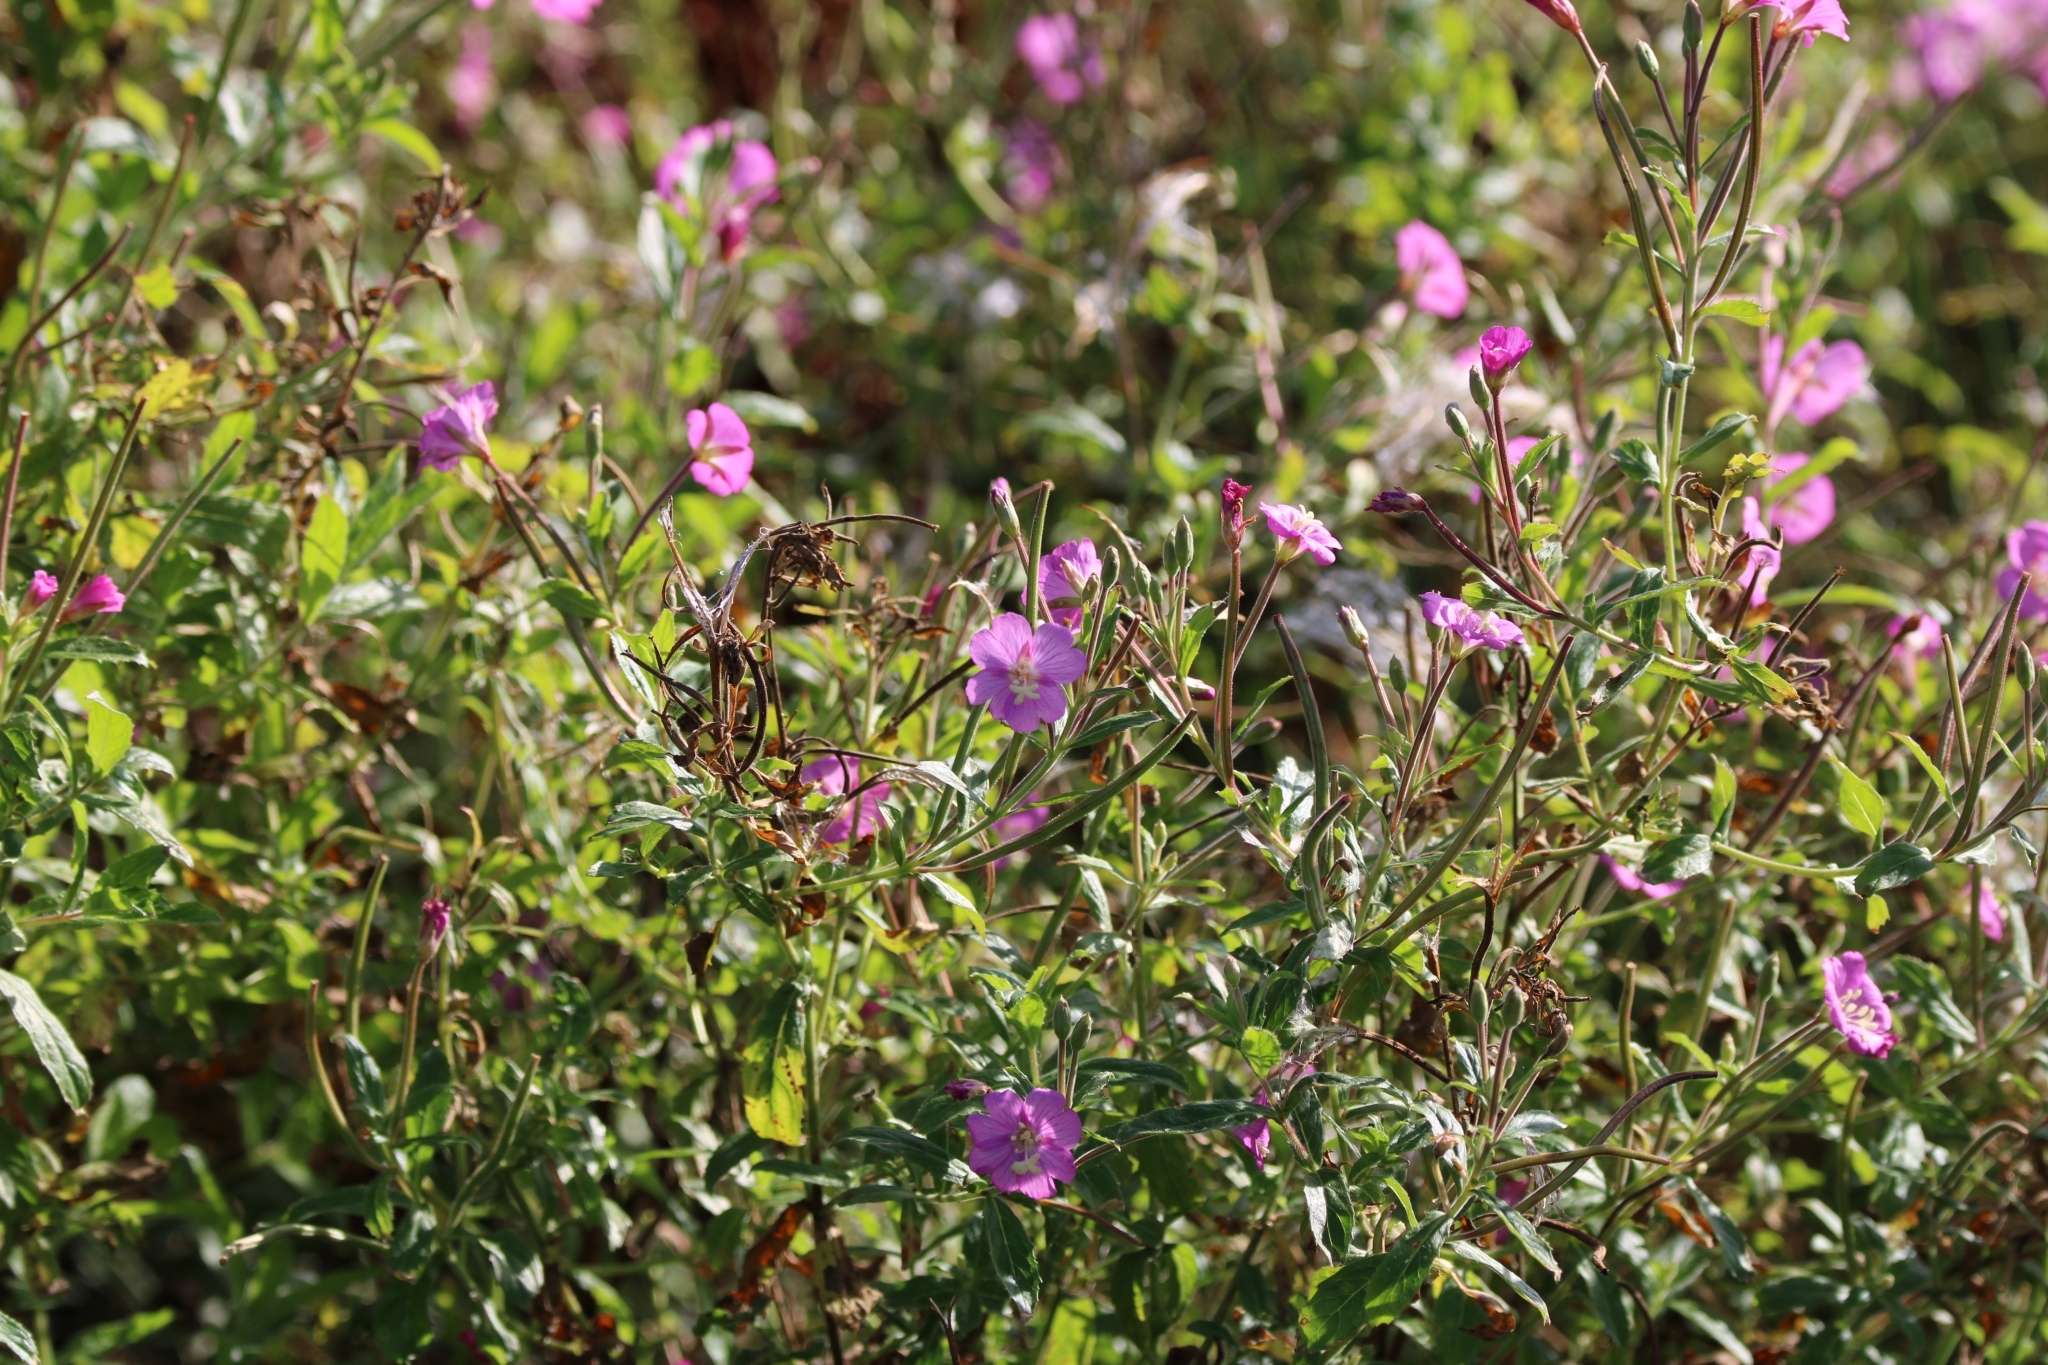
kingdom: Plantae
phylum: Tracheophyta
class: Magnoliopsida
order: Myrtales
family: Onagraceae
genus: Epilobium
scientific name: Epilobium hirsutum
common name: Great willowherb
